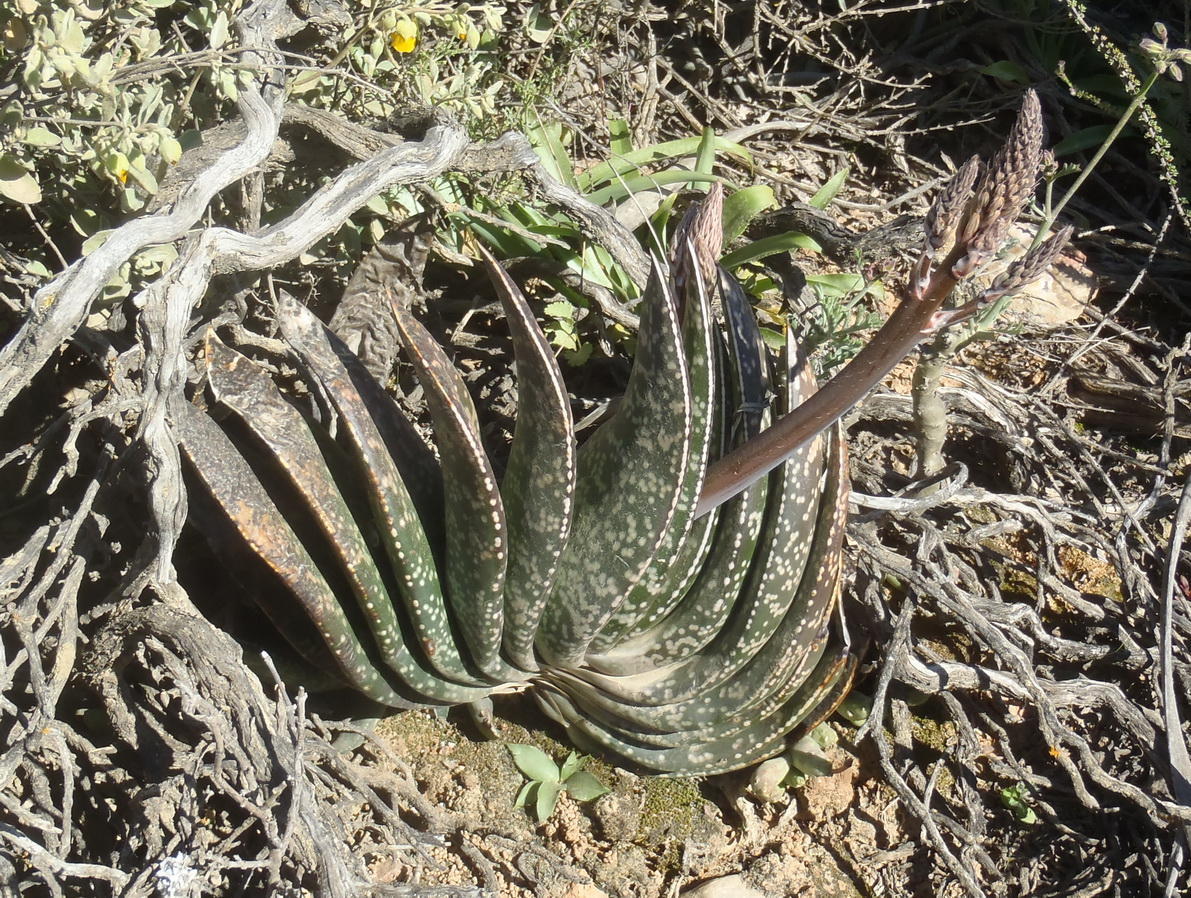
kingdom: Plantae
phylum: Tracheophyta
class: Liliopsida
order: Asparagales
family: Asphodelaceae
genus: Gasteria
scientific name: Gasteria brachyphylla
